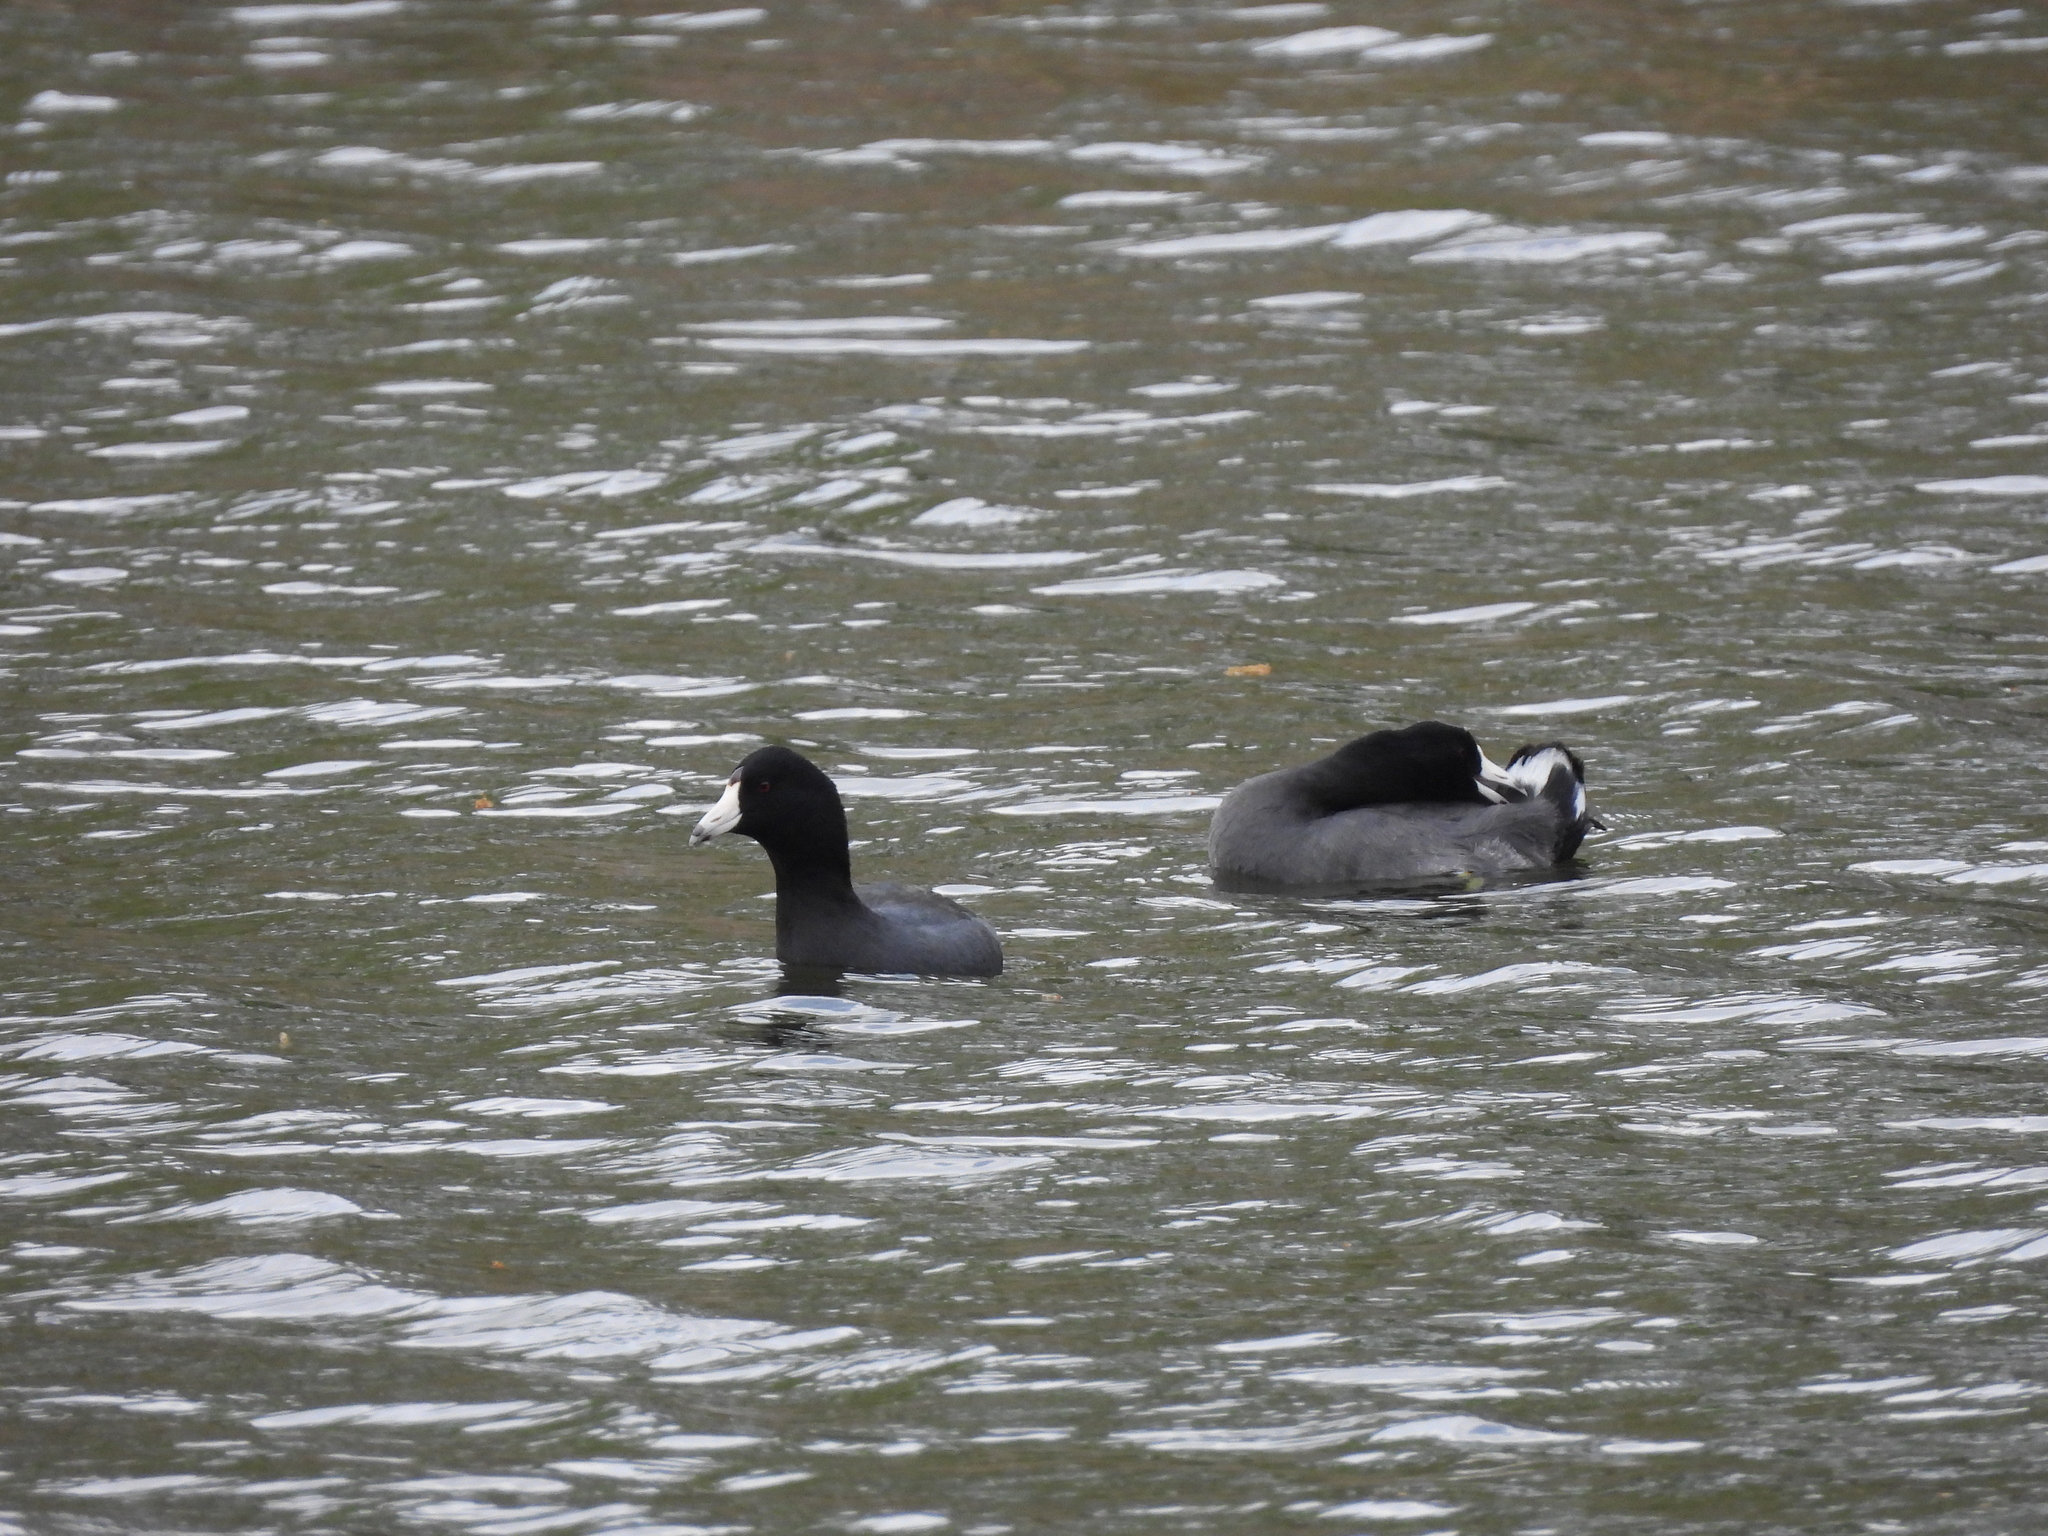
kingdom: Animalia
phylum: Chordata
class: Aves
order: Gruiformes
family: Rallidae
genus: Fulica
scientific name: Fulica americana
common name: American coot
